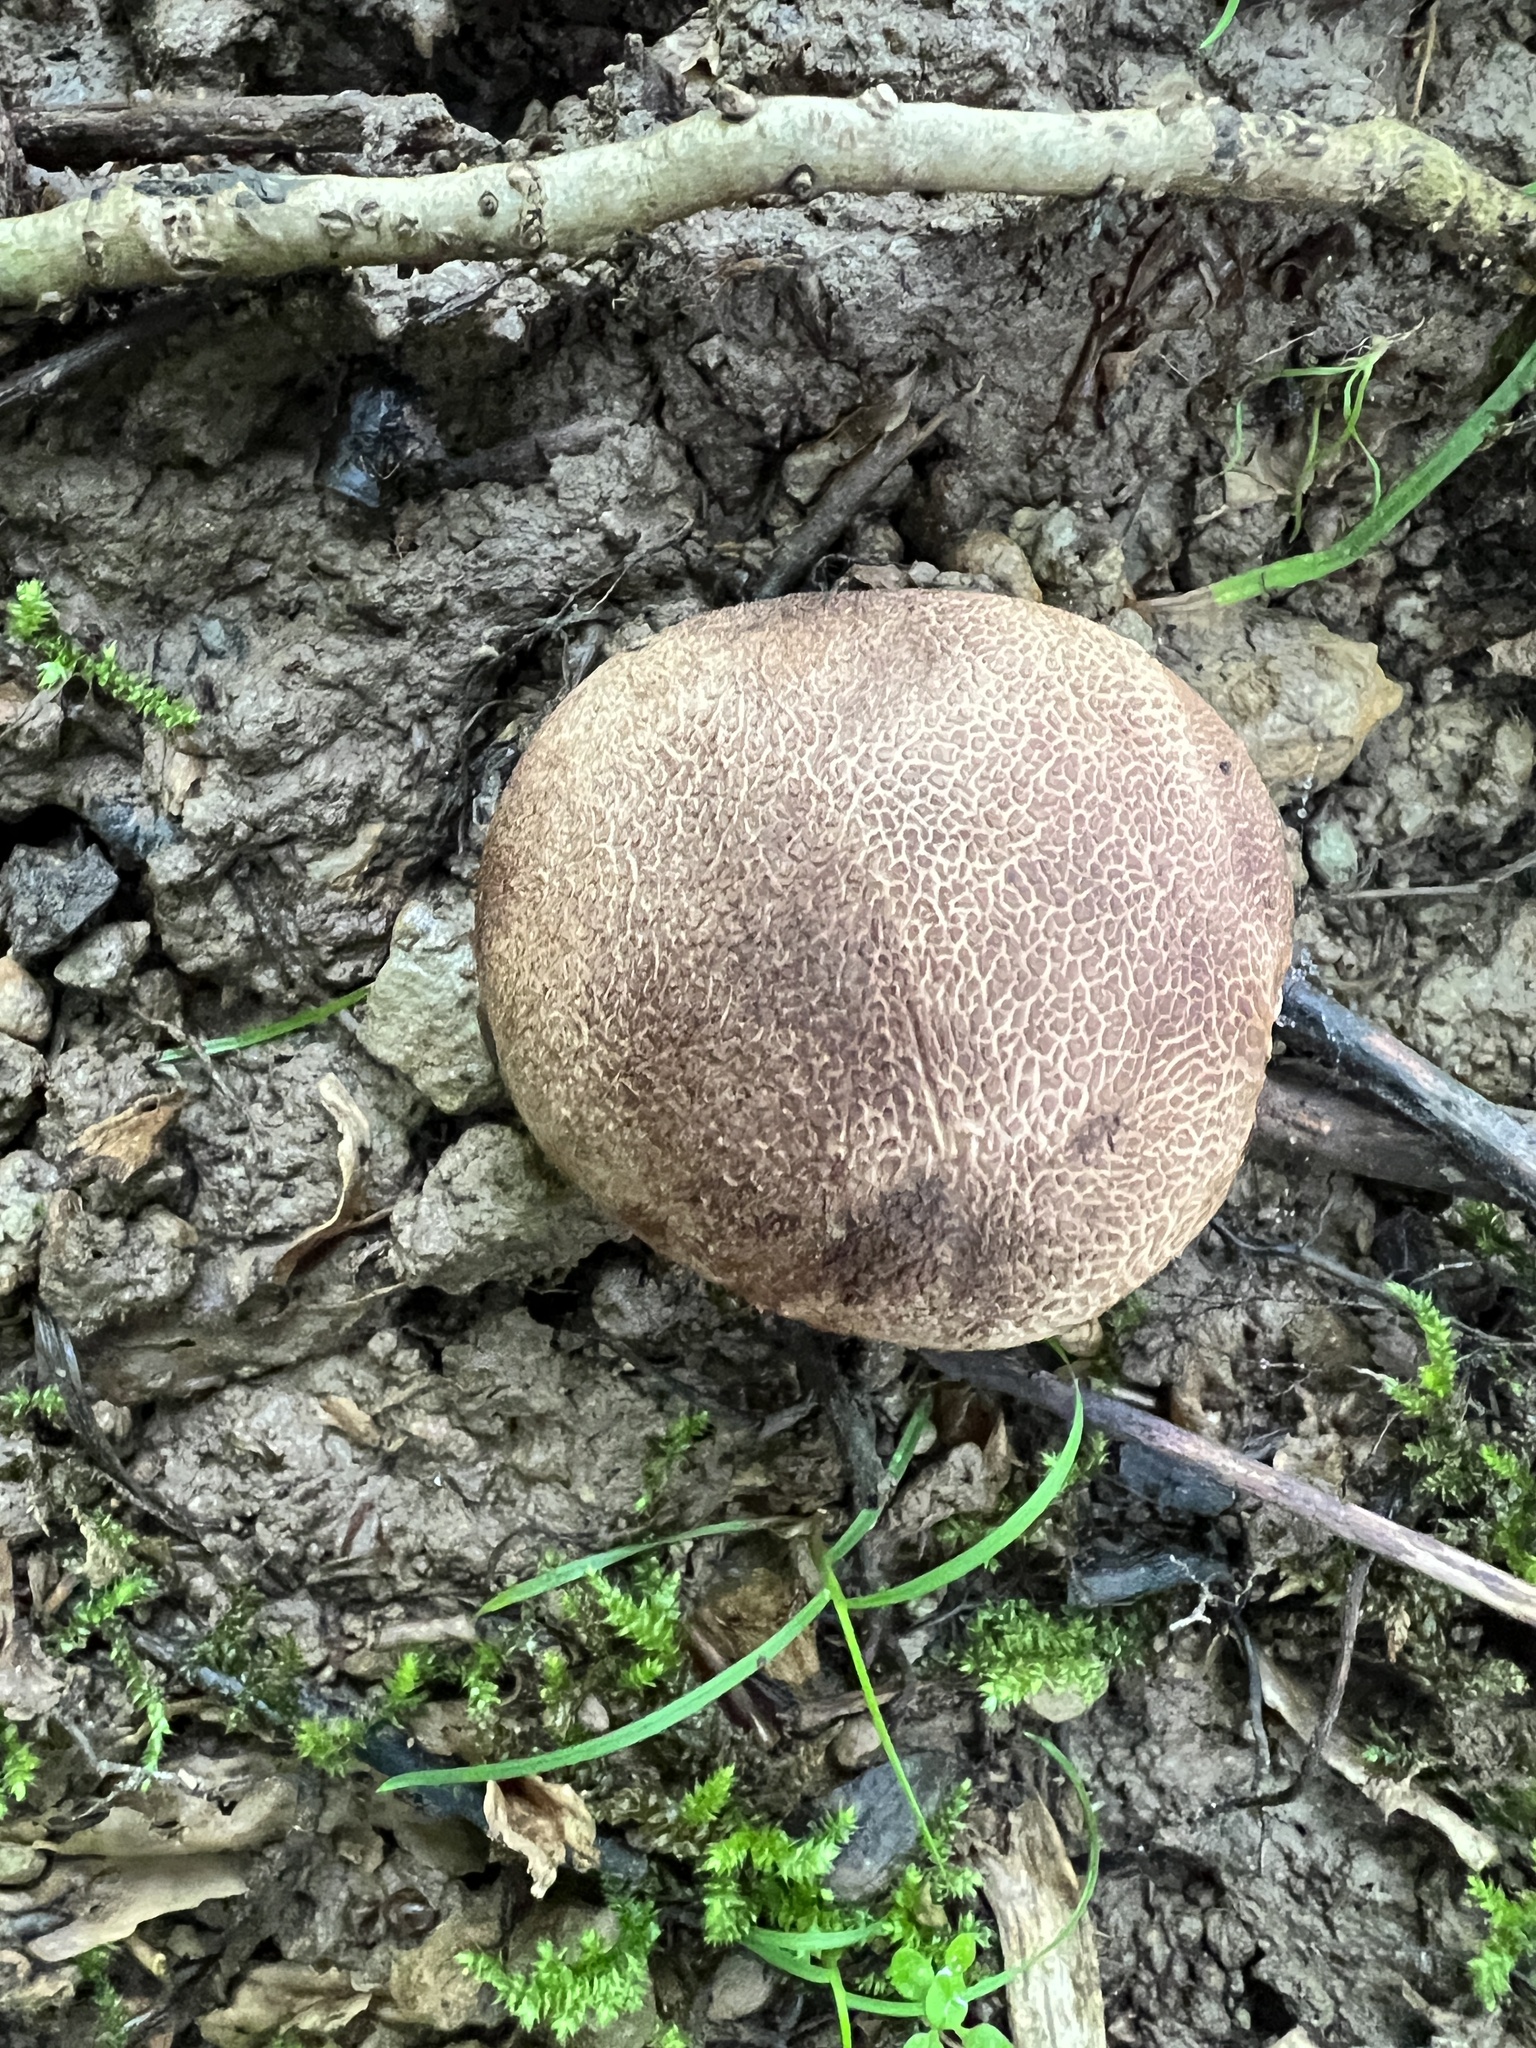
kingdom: Fungi
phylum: Basidiomycota
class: Agaricomycetes
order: Boletales
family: Sclerodermataceae
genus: Scleroderma
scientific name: Scleroderma cepa
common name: Onion earthball
